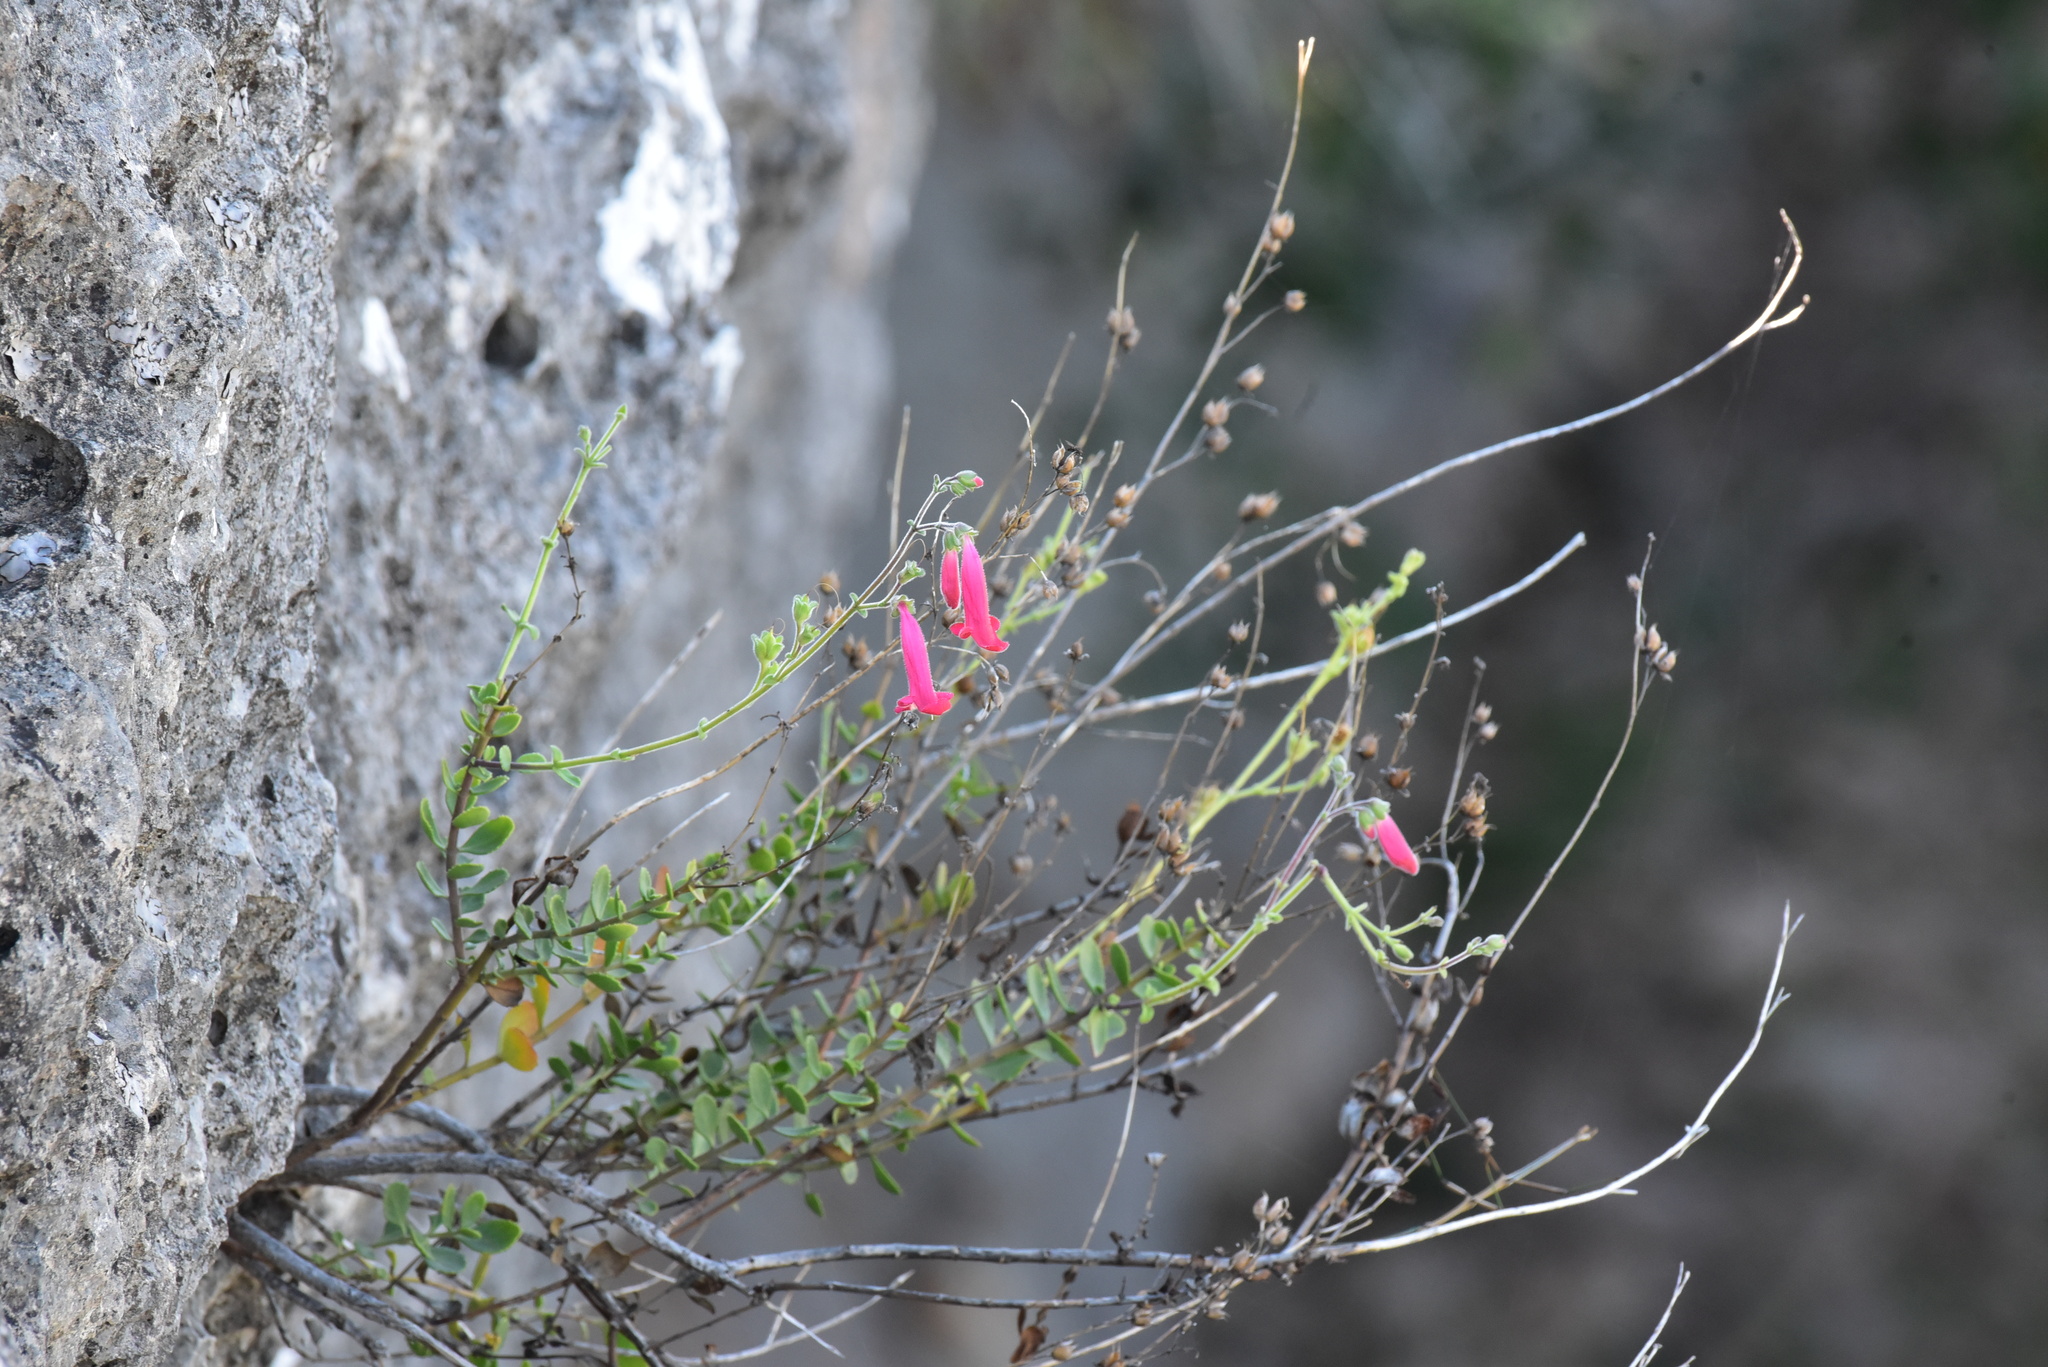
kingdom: Plantae
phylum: Tracheophyta
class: Magnoliopsida
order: Lamiales
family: Plantaginaceae
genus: Penstemon
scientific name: Penstemon baccharifolius
